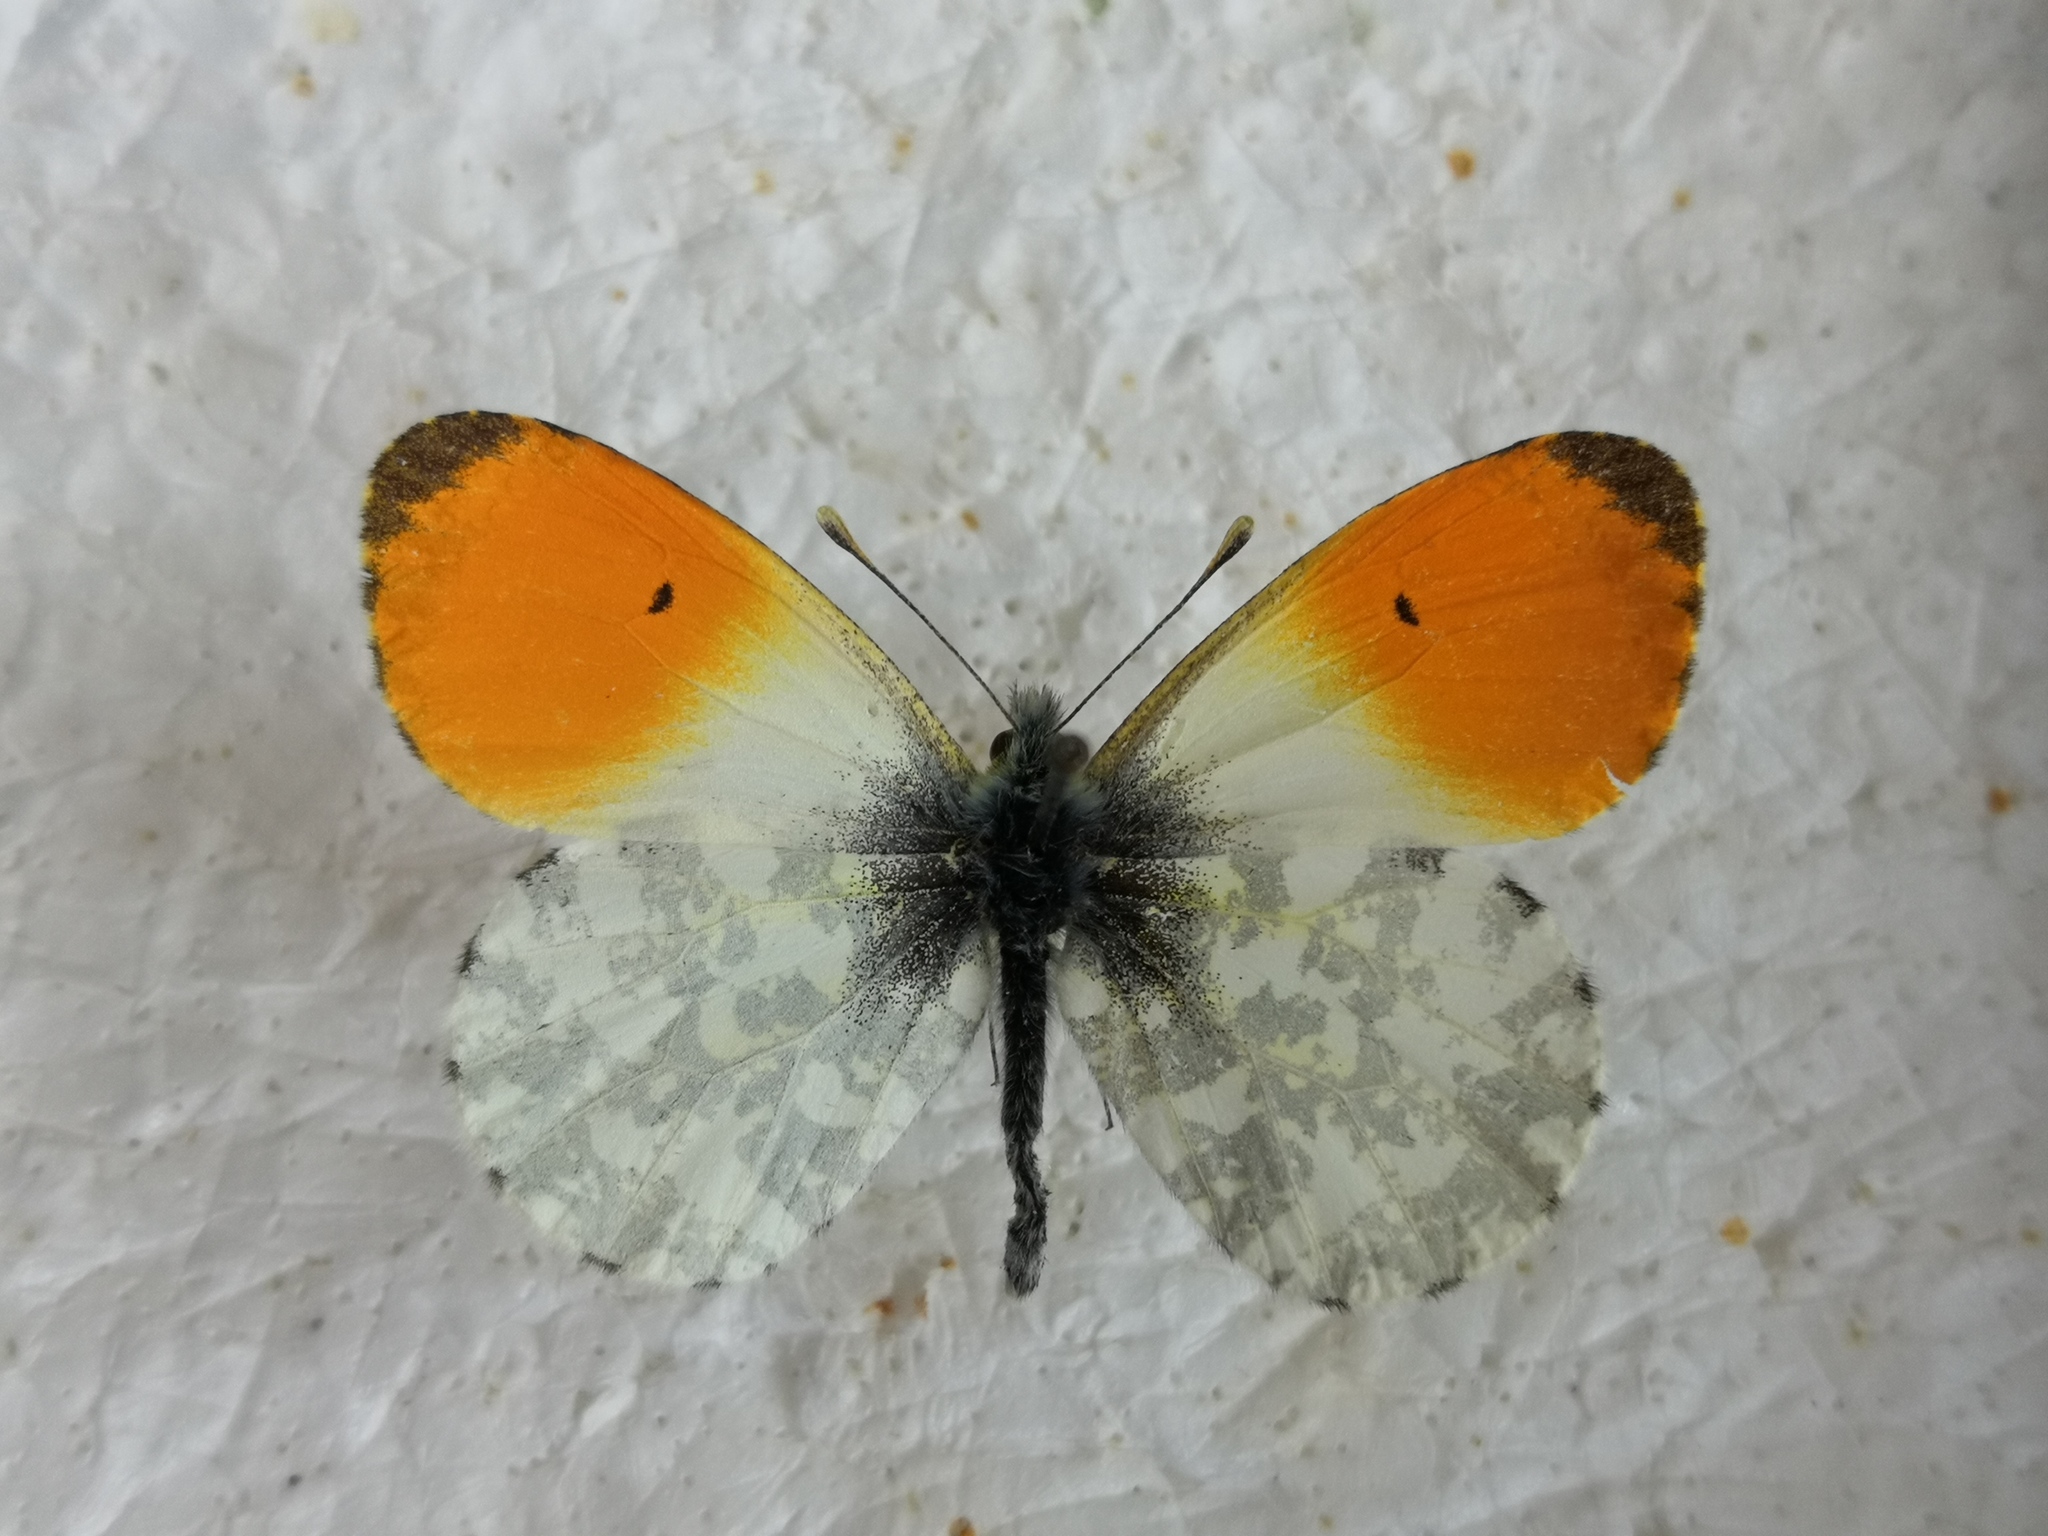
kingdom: Animalia
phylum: Arthropoda
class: Insecta
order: Lepidoptera
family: Pieridae
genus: Anthocharis
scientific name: Anthocharis cardamines
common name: Orange-tip
